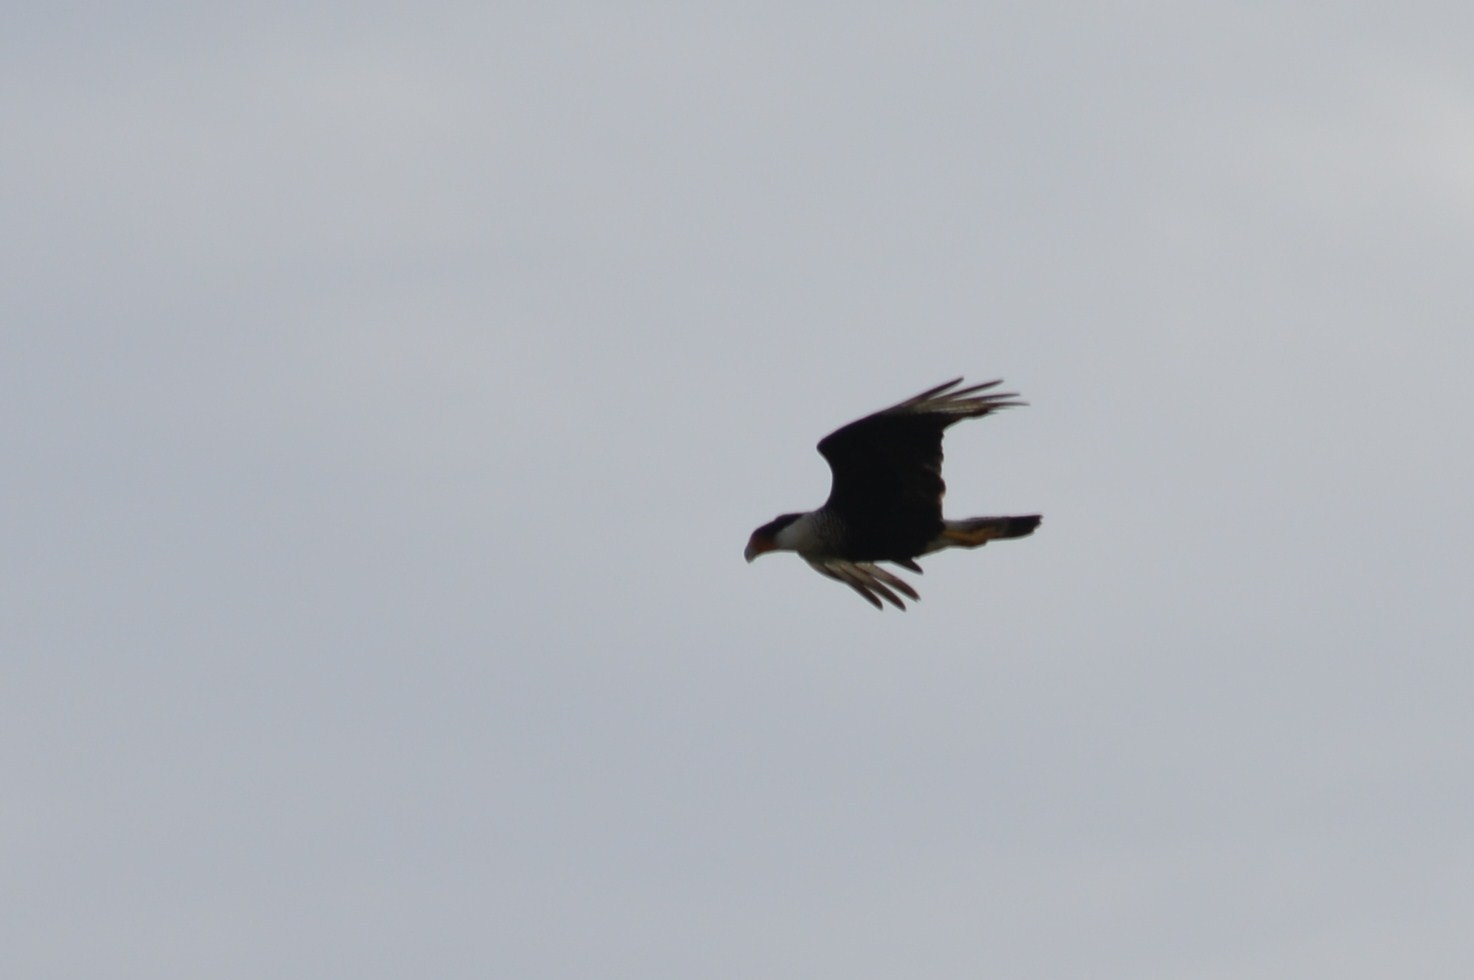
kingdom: Animalia
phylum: Chordata
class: Aves
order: Falconiformes
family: Falconidae
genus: Caracara
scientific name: Caracara plancus
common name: Southern caracara
